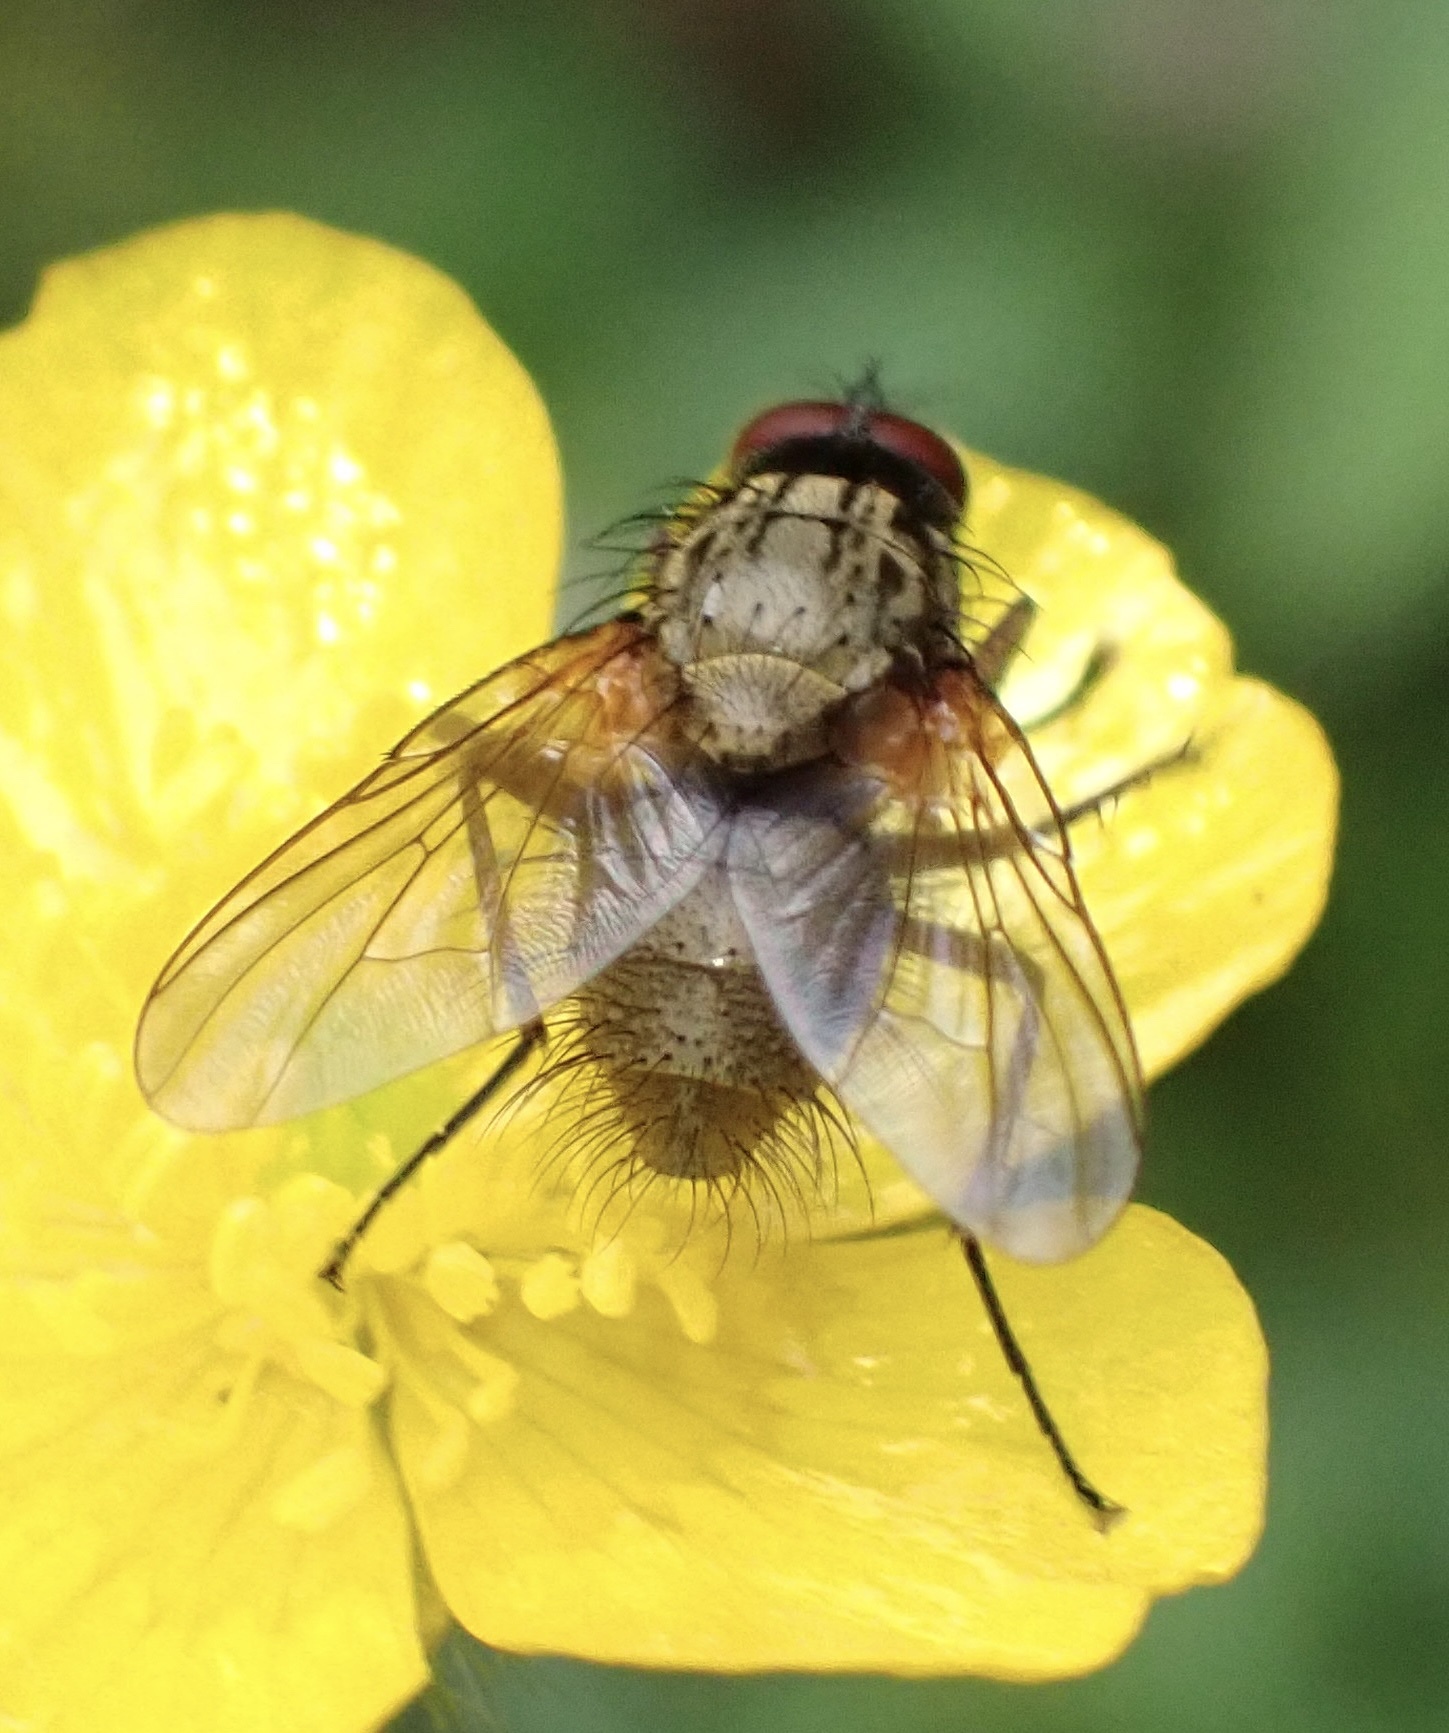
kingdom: Animalia
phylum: Arthropoda
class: Insecta
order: Diptera
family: Muscidae
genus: Phaonia
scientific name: Phaonia angelicae
